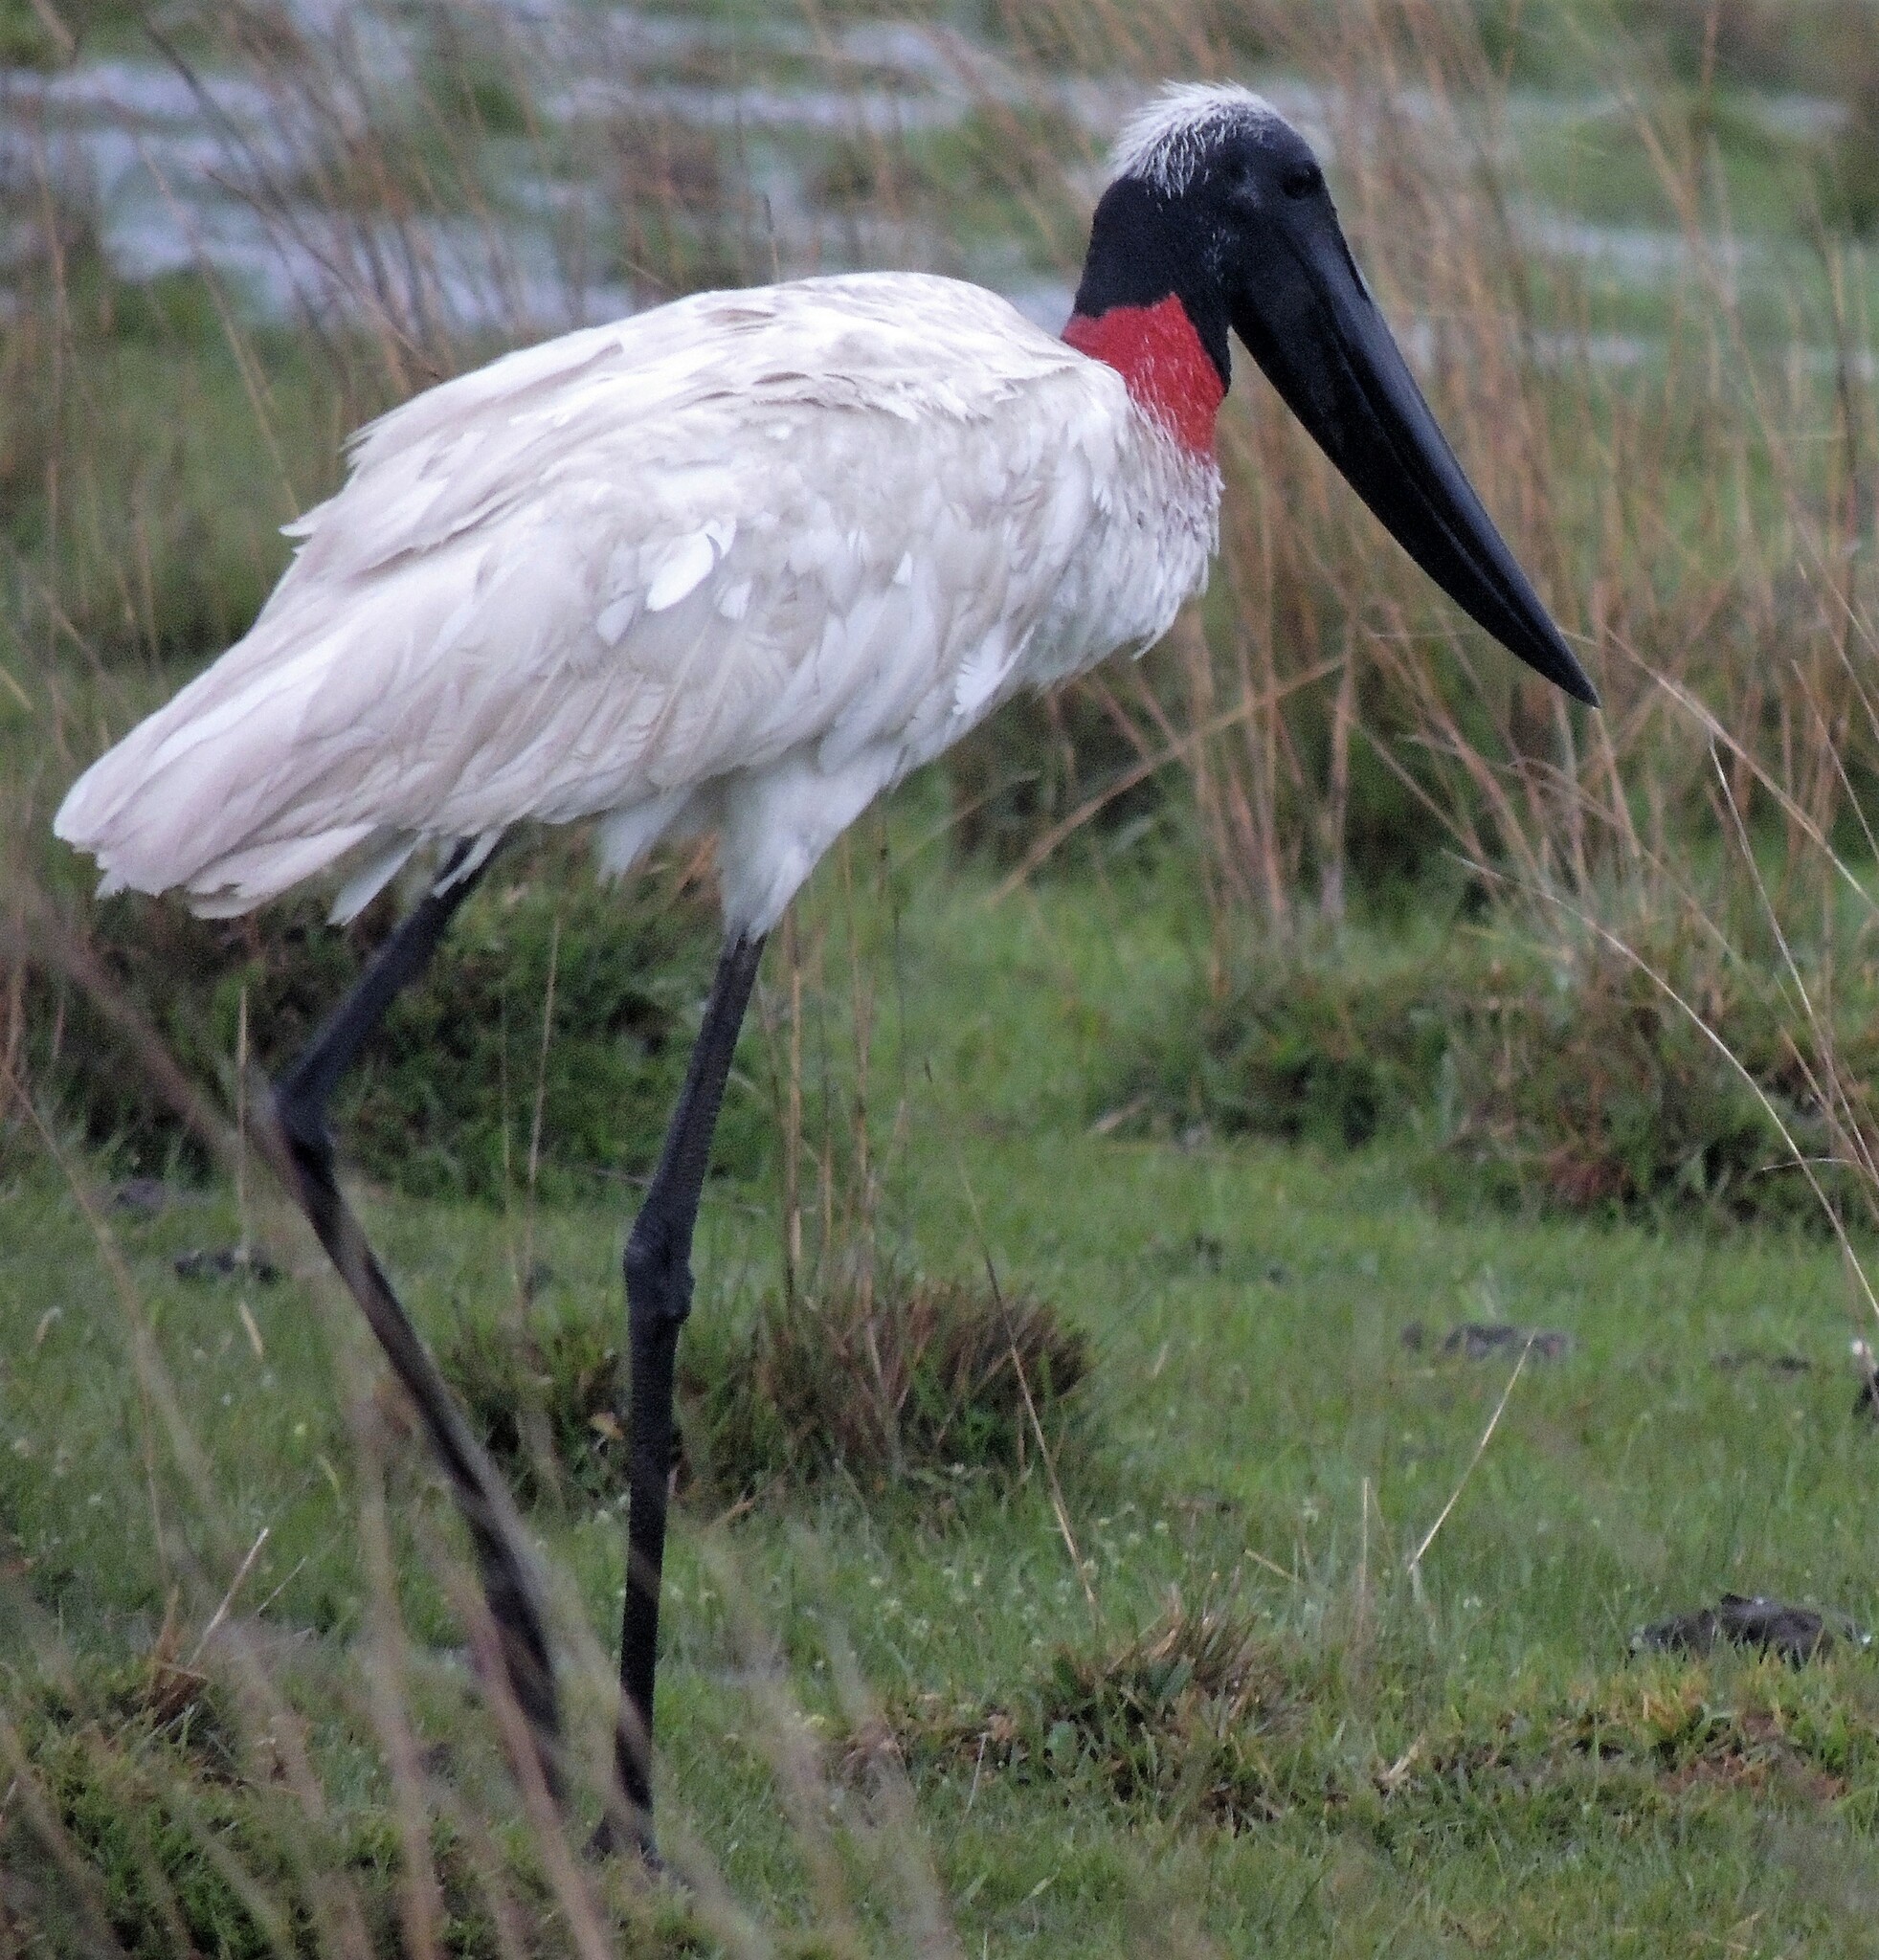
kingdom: Animalia
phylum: Chordata
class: Aves
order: Ciconiiformes
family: Ciconiidae
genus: Jabiru
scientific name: Jabiru mycteria
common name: Jabiru
